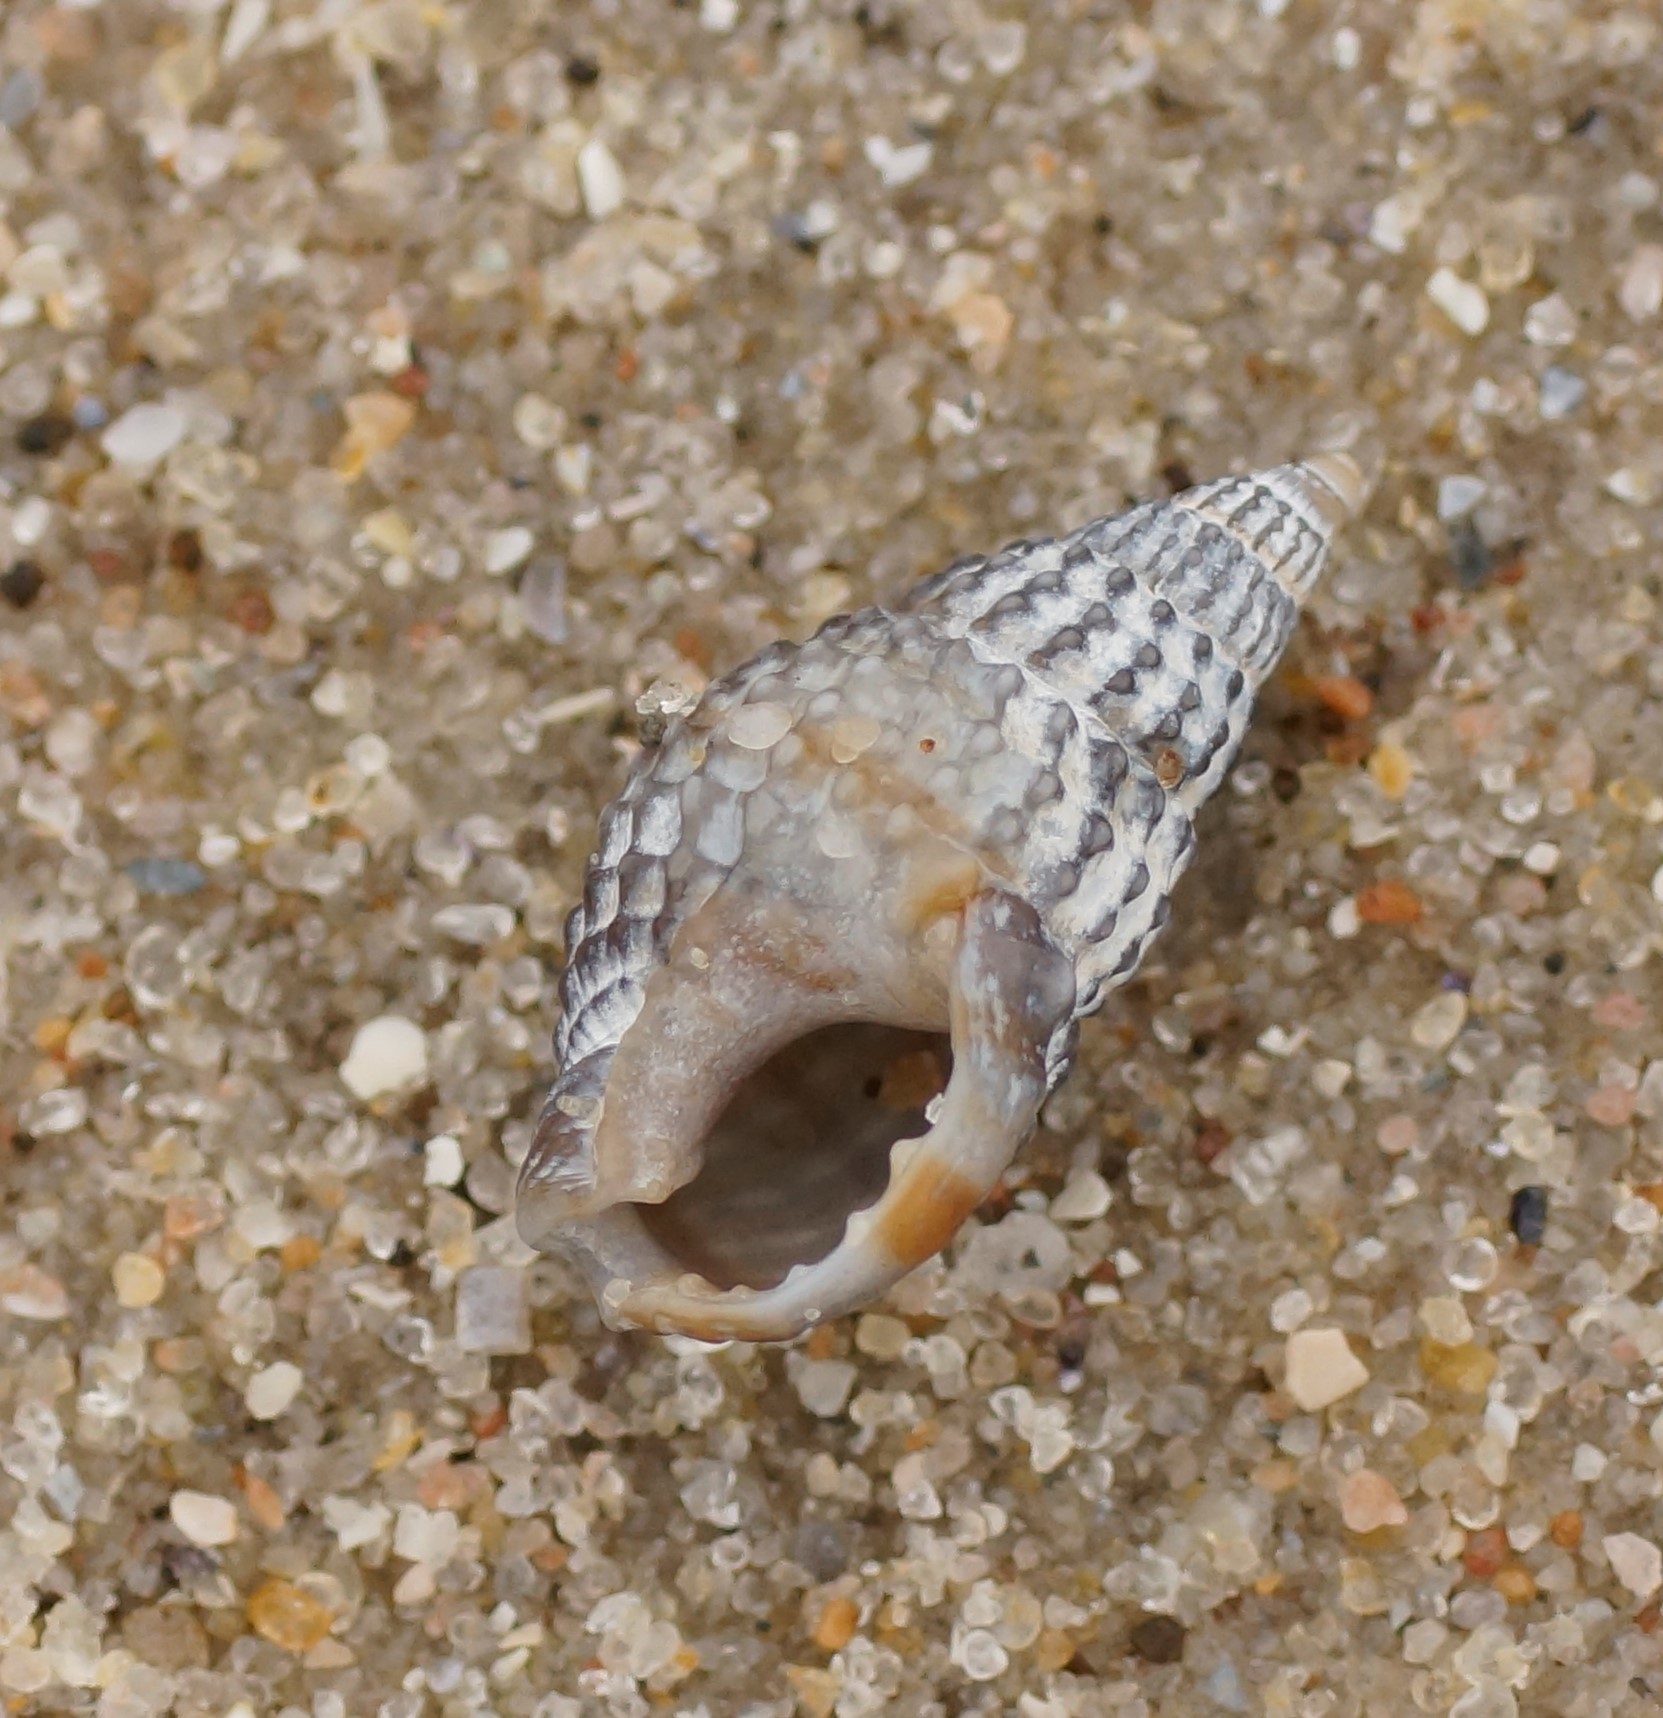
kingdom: Animalia
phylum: Mollusca
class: Gastropoda
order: Neogastropoda
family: Nassariidae
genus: Nassarius
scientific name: Nassarius pyrrhus
